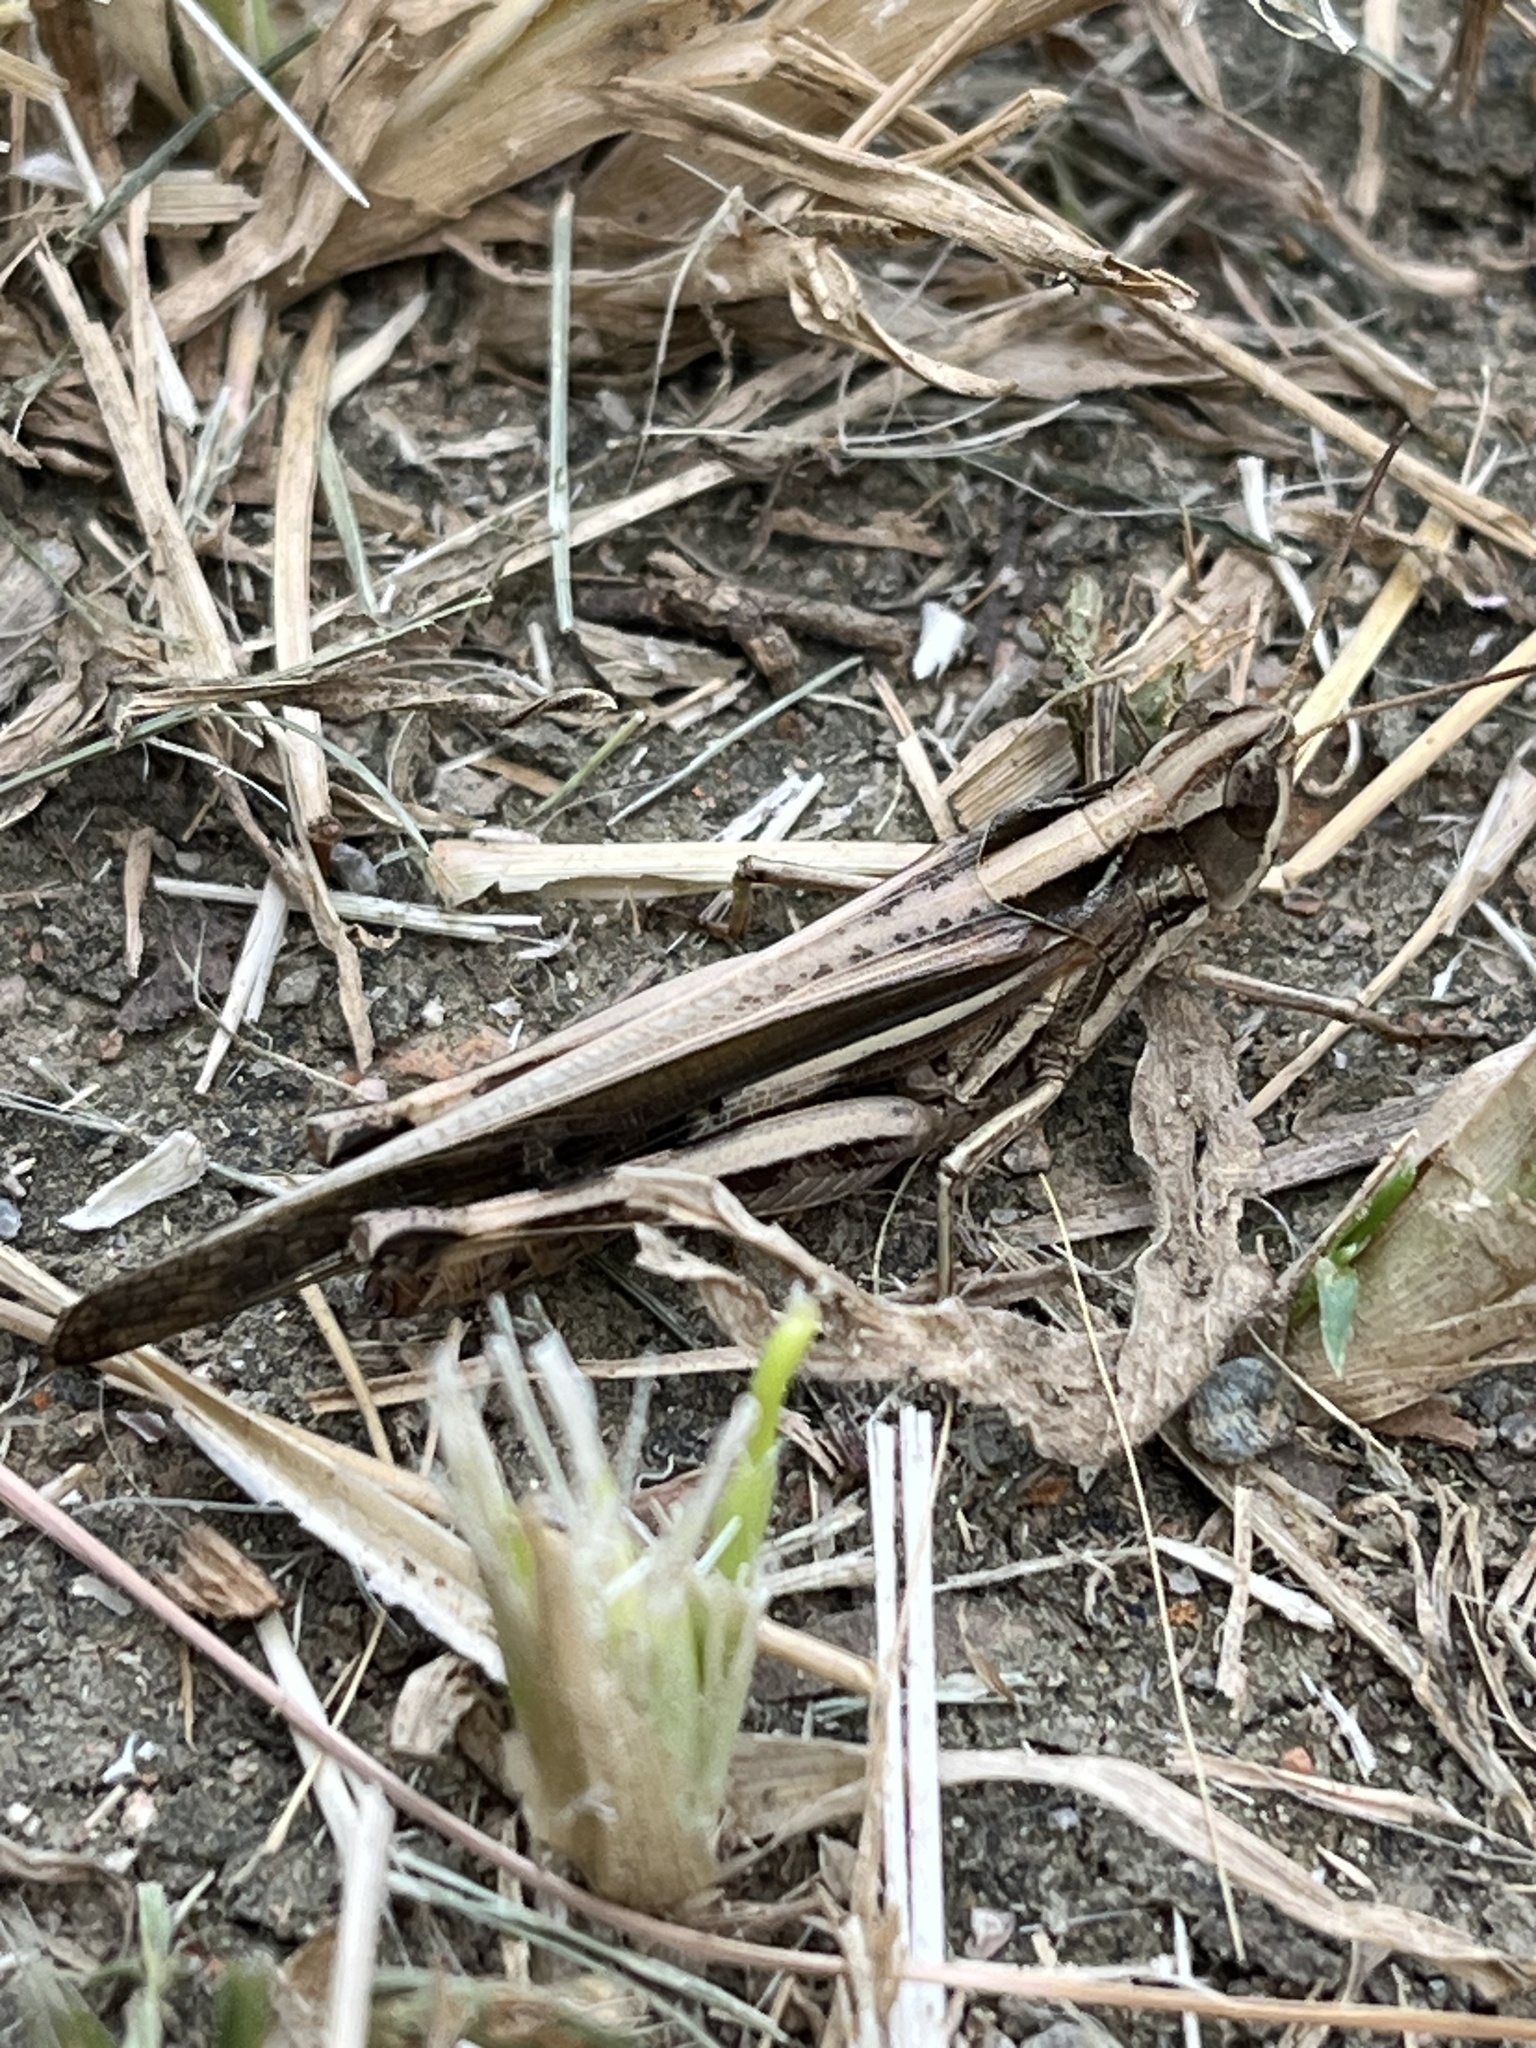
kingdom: Animalia
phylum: Arthropoda
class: Insecta
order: Orthoptera
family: Acrididae
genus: Aiolopus
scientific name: Aiolopus thalassinus
